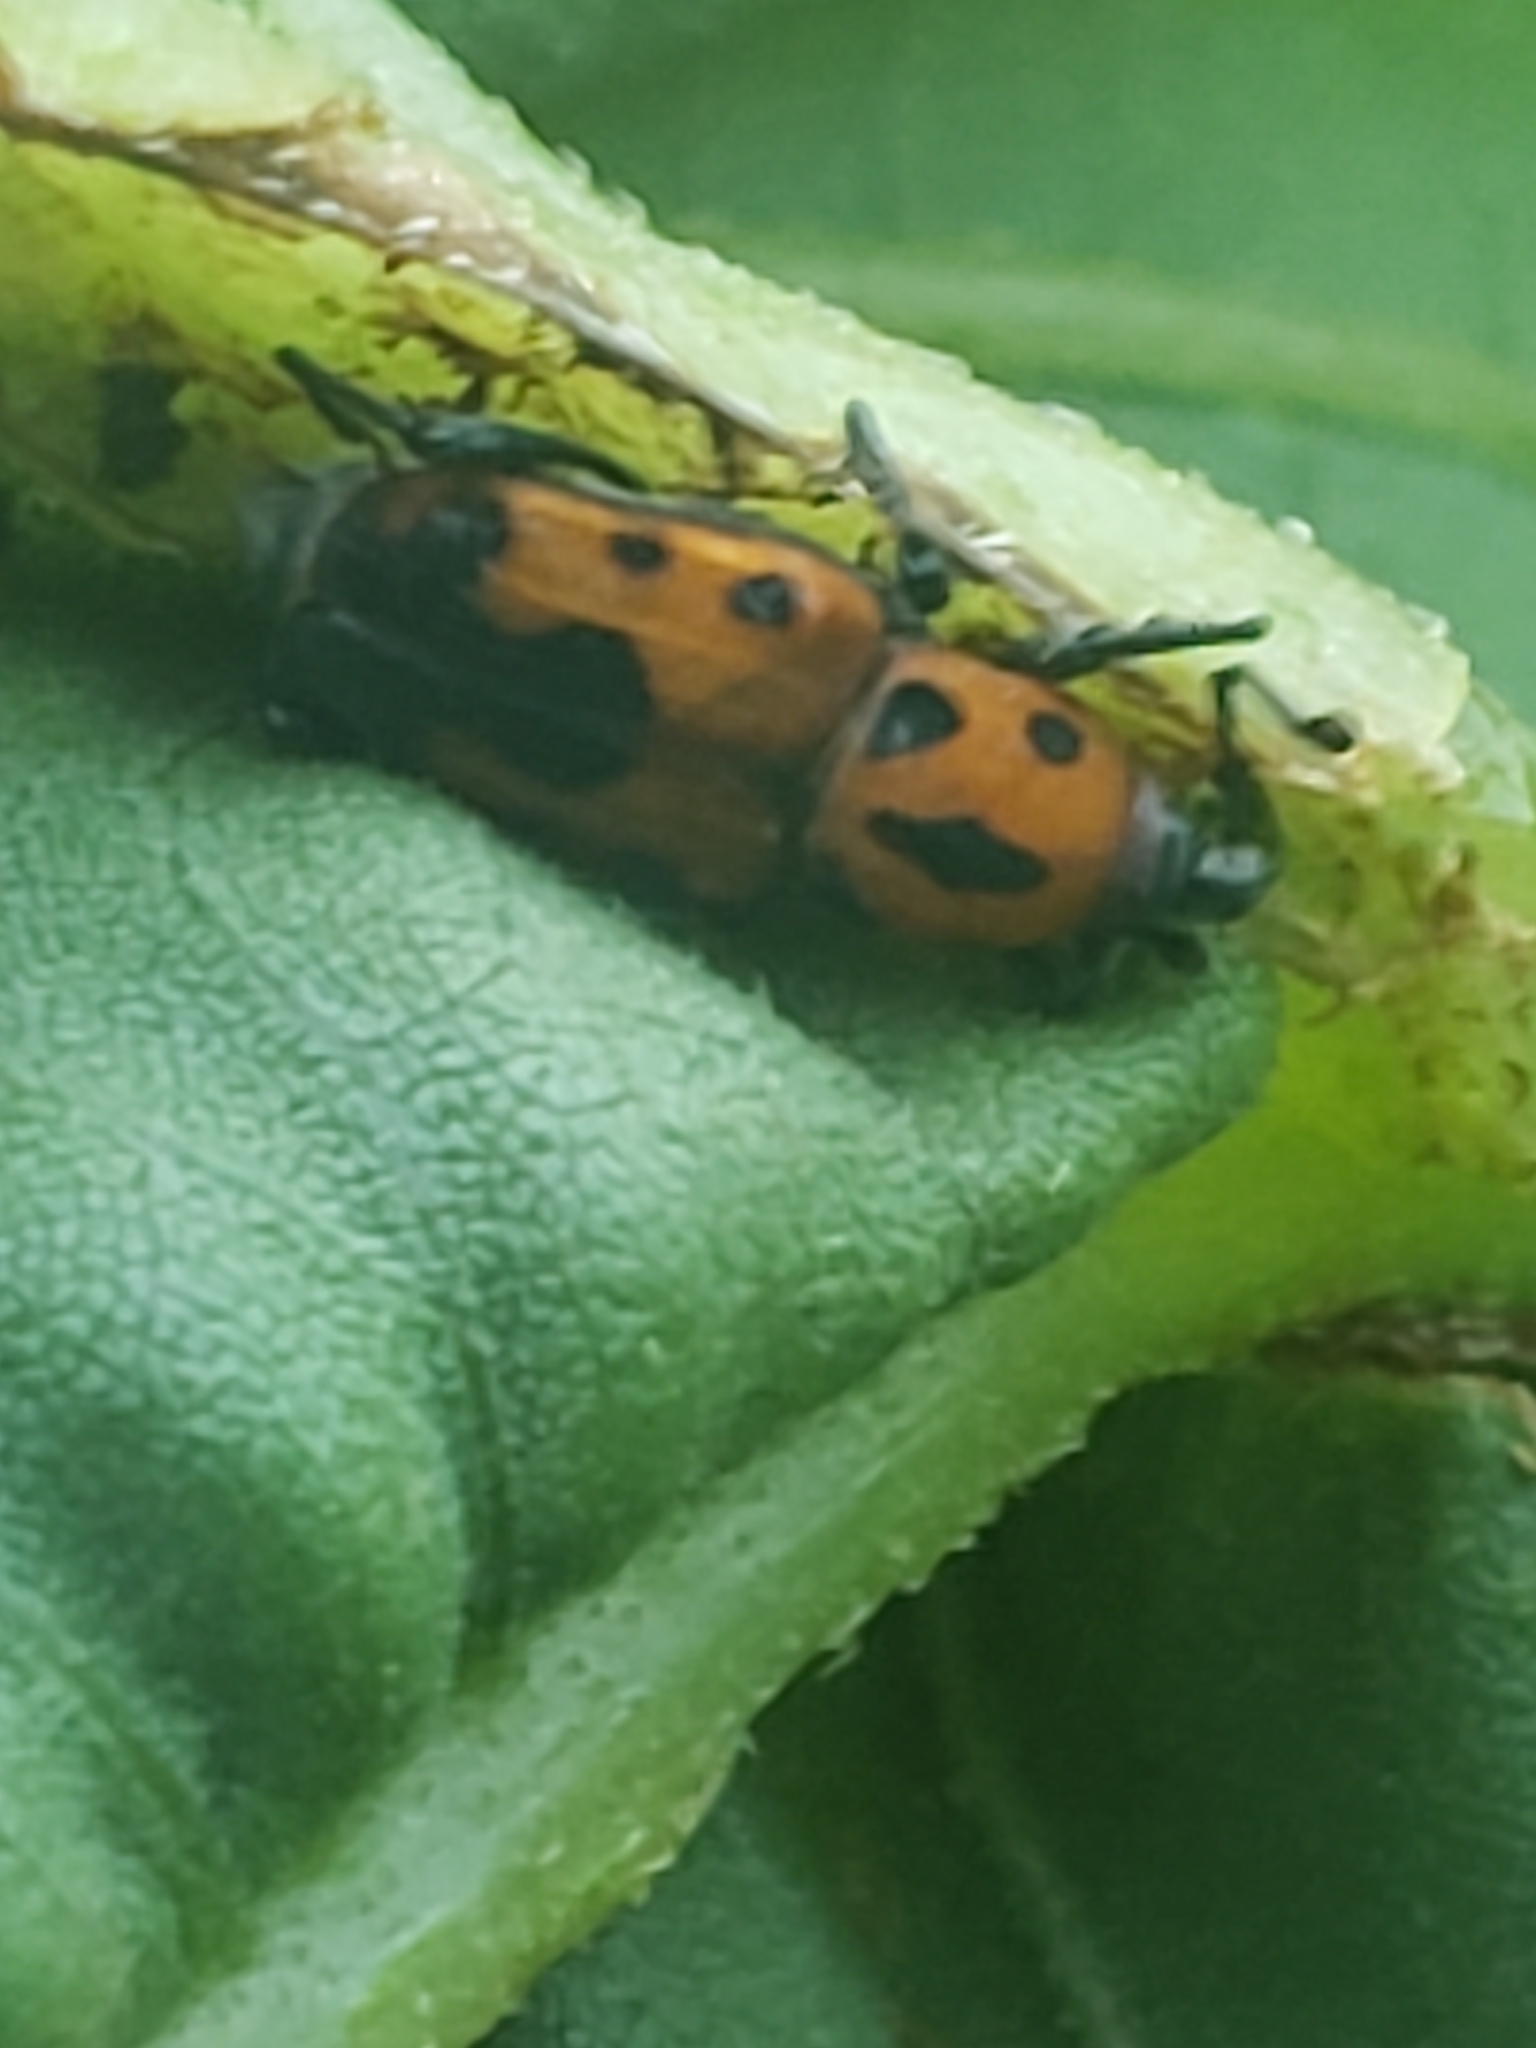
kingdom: Animalia
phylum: Arthropoda
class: Insecta
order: Coleoptera
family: Dryophthoridae
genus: Rhodobaenus
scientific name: Rhodobaenus quinquepunctatus
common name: Cocklebur weevil
